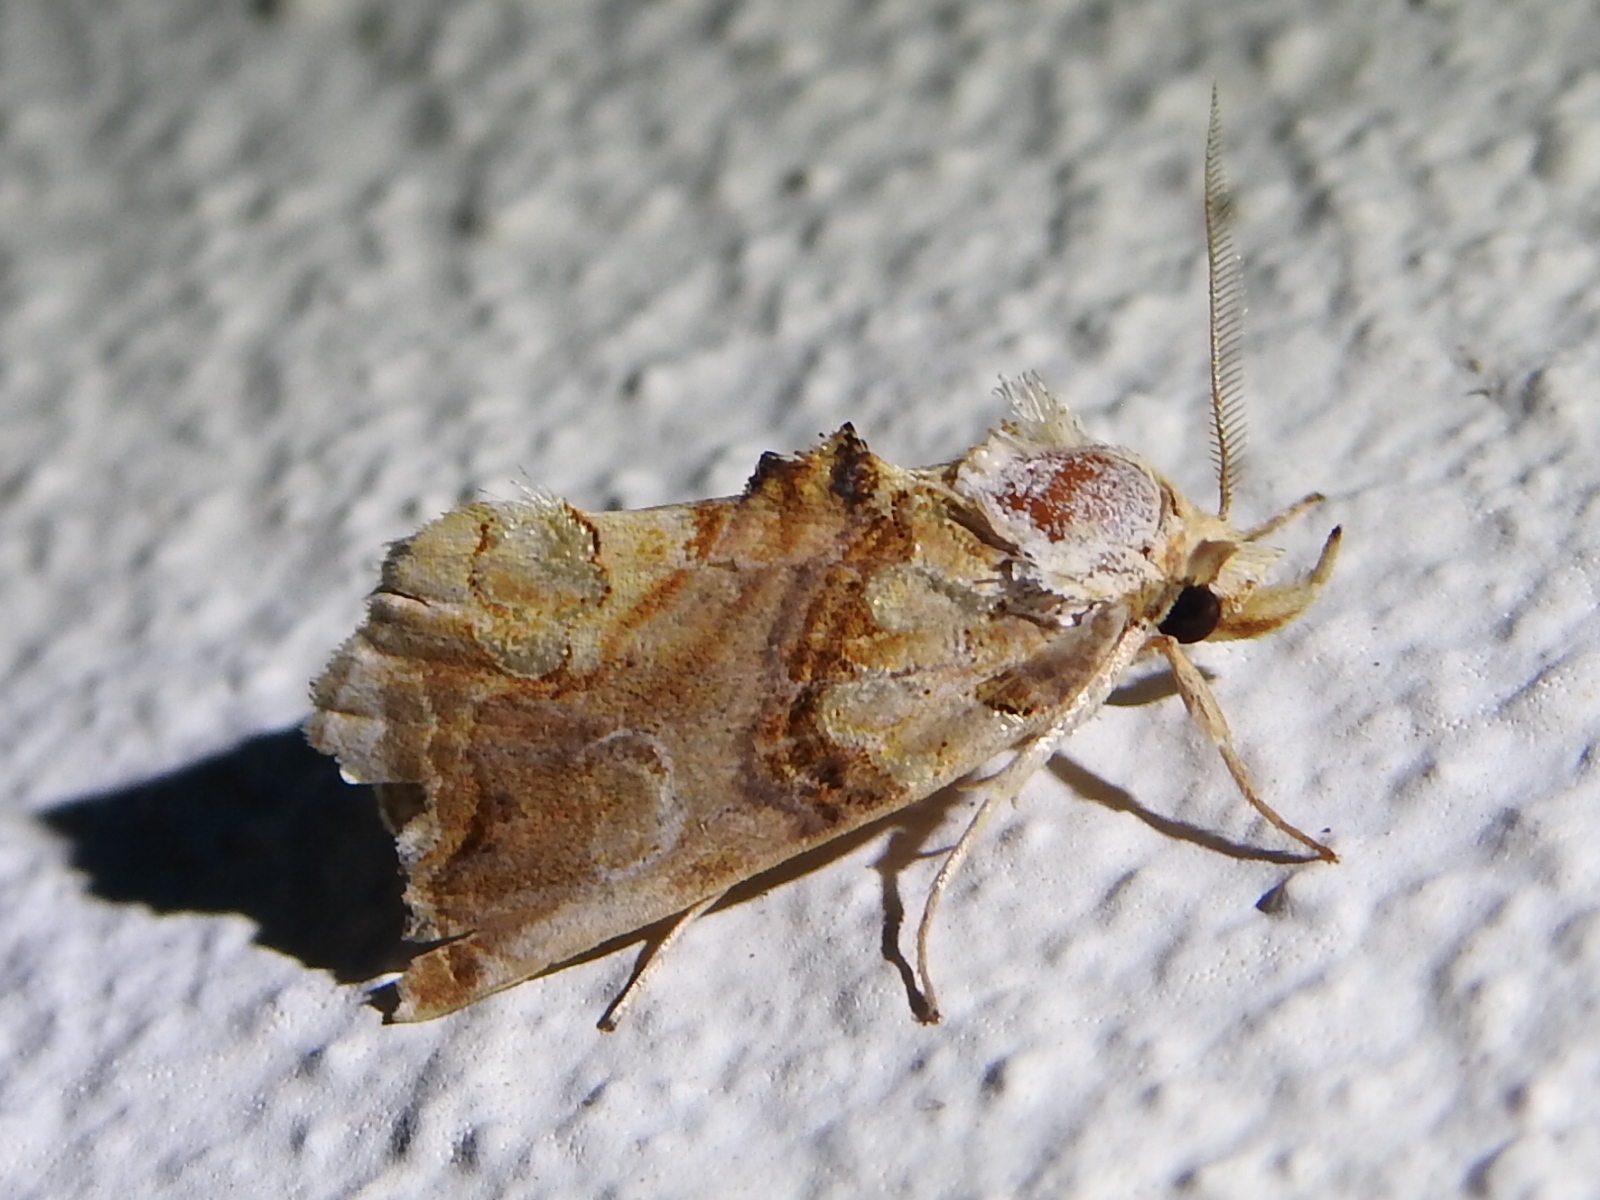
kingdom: Animalia
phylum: Arthropoda
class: Insecta
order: Lepidoptera
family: Erebidae
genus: Plusiodonta
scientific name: Plusiodonta compressipalpis
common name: Moonseed moth
